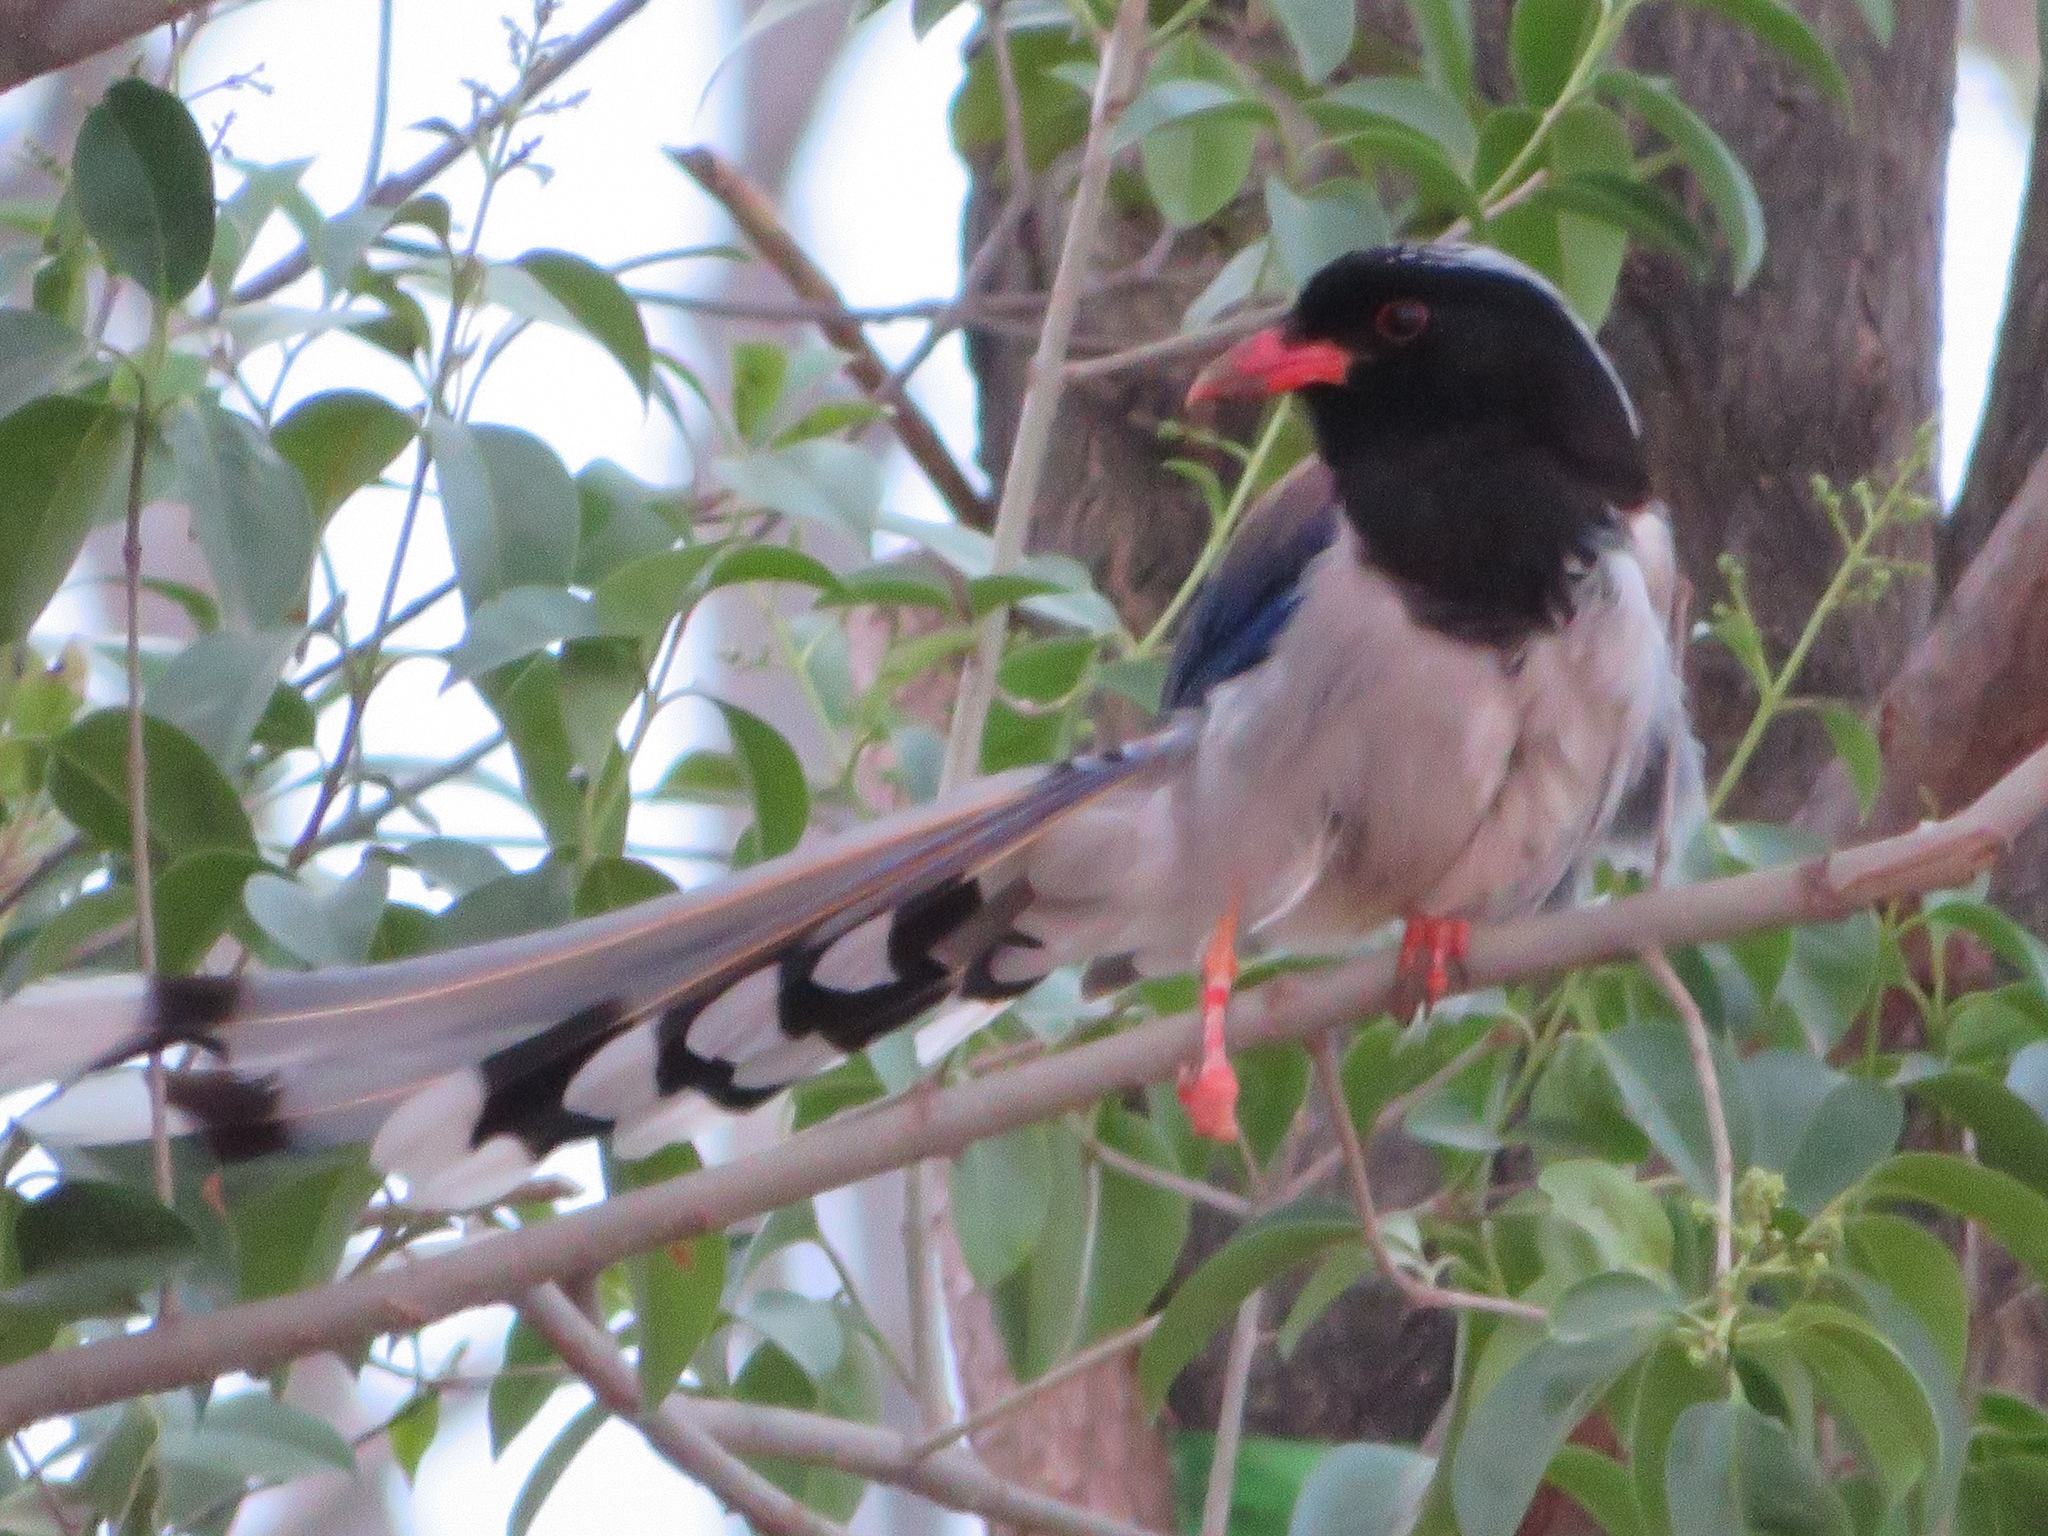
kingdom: Animalia
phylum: Chordata
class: Aves
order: Passeriformes
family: Corvidae
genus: Urocissa
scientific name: Urocissa erythroryncha
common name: Red-billed blue magpie
